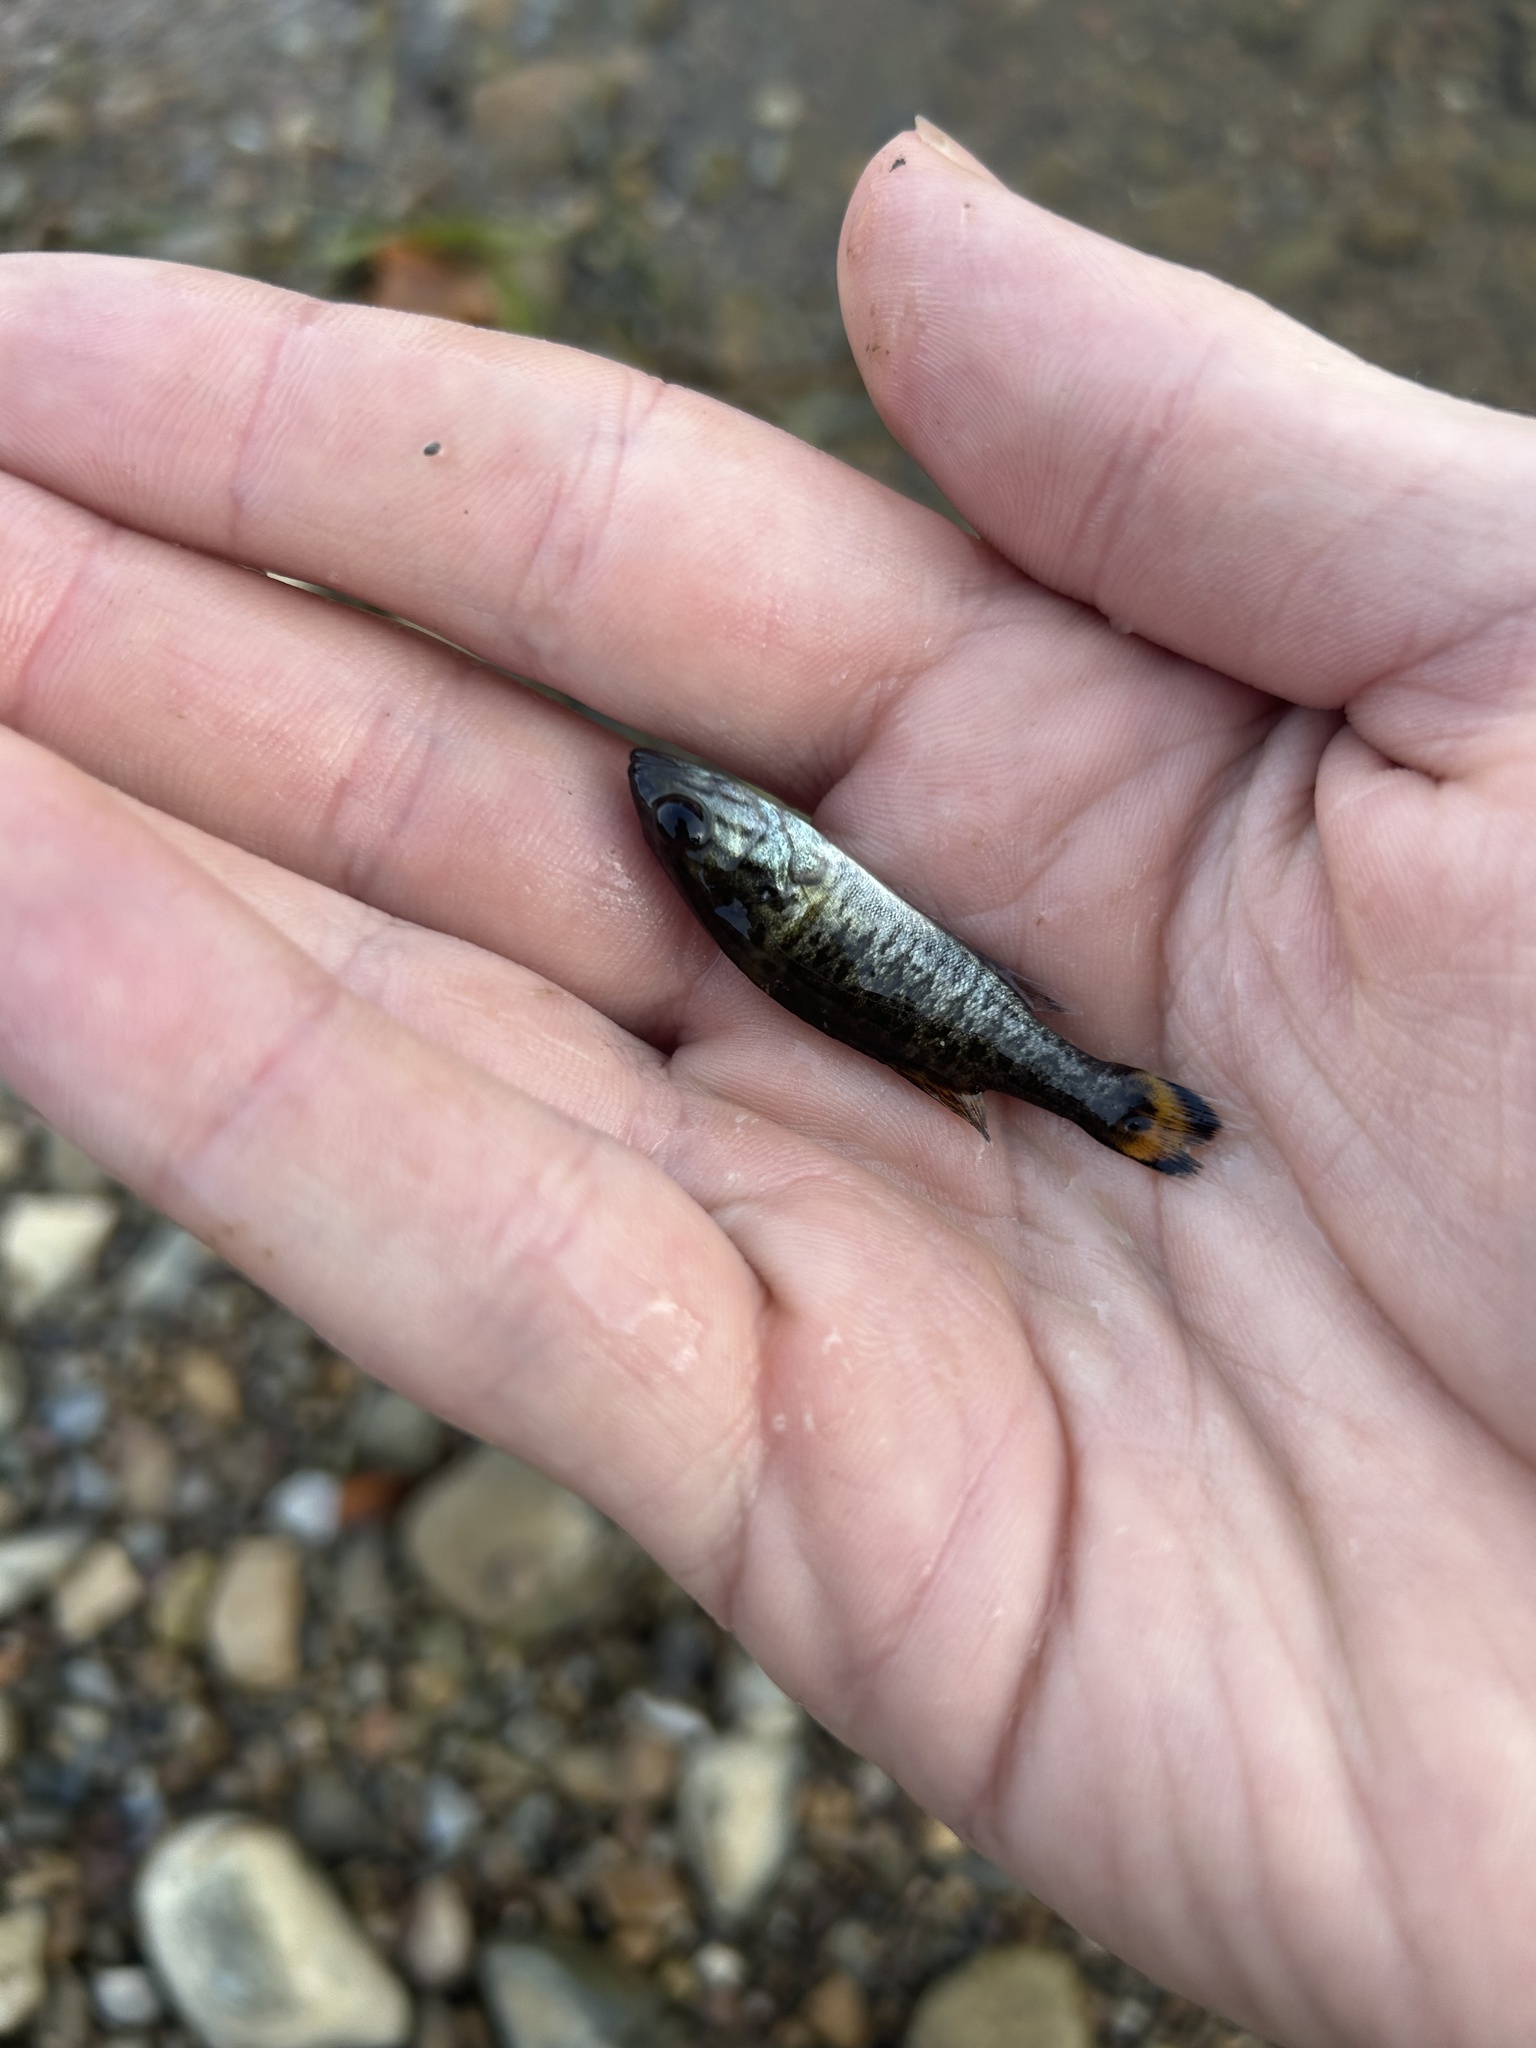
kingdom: Animalia
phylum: Chordata
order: Perciformes
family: Centrarchidae
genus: Micropterus
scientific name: Micropterus dolomieu
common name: Smallmouth bass
